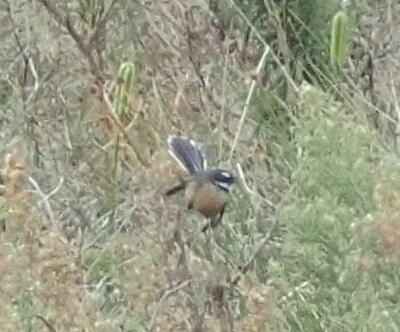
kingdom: Animalia
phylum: Chordata
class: Aves
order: Passeriformes
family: Rhipiduridae
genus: Rhipidura
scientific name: Rhipidura fuliginosa
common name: New zealand fantail
